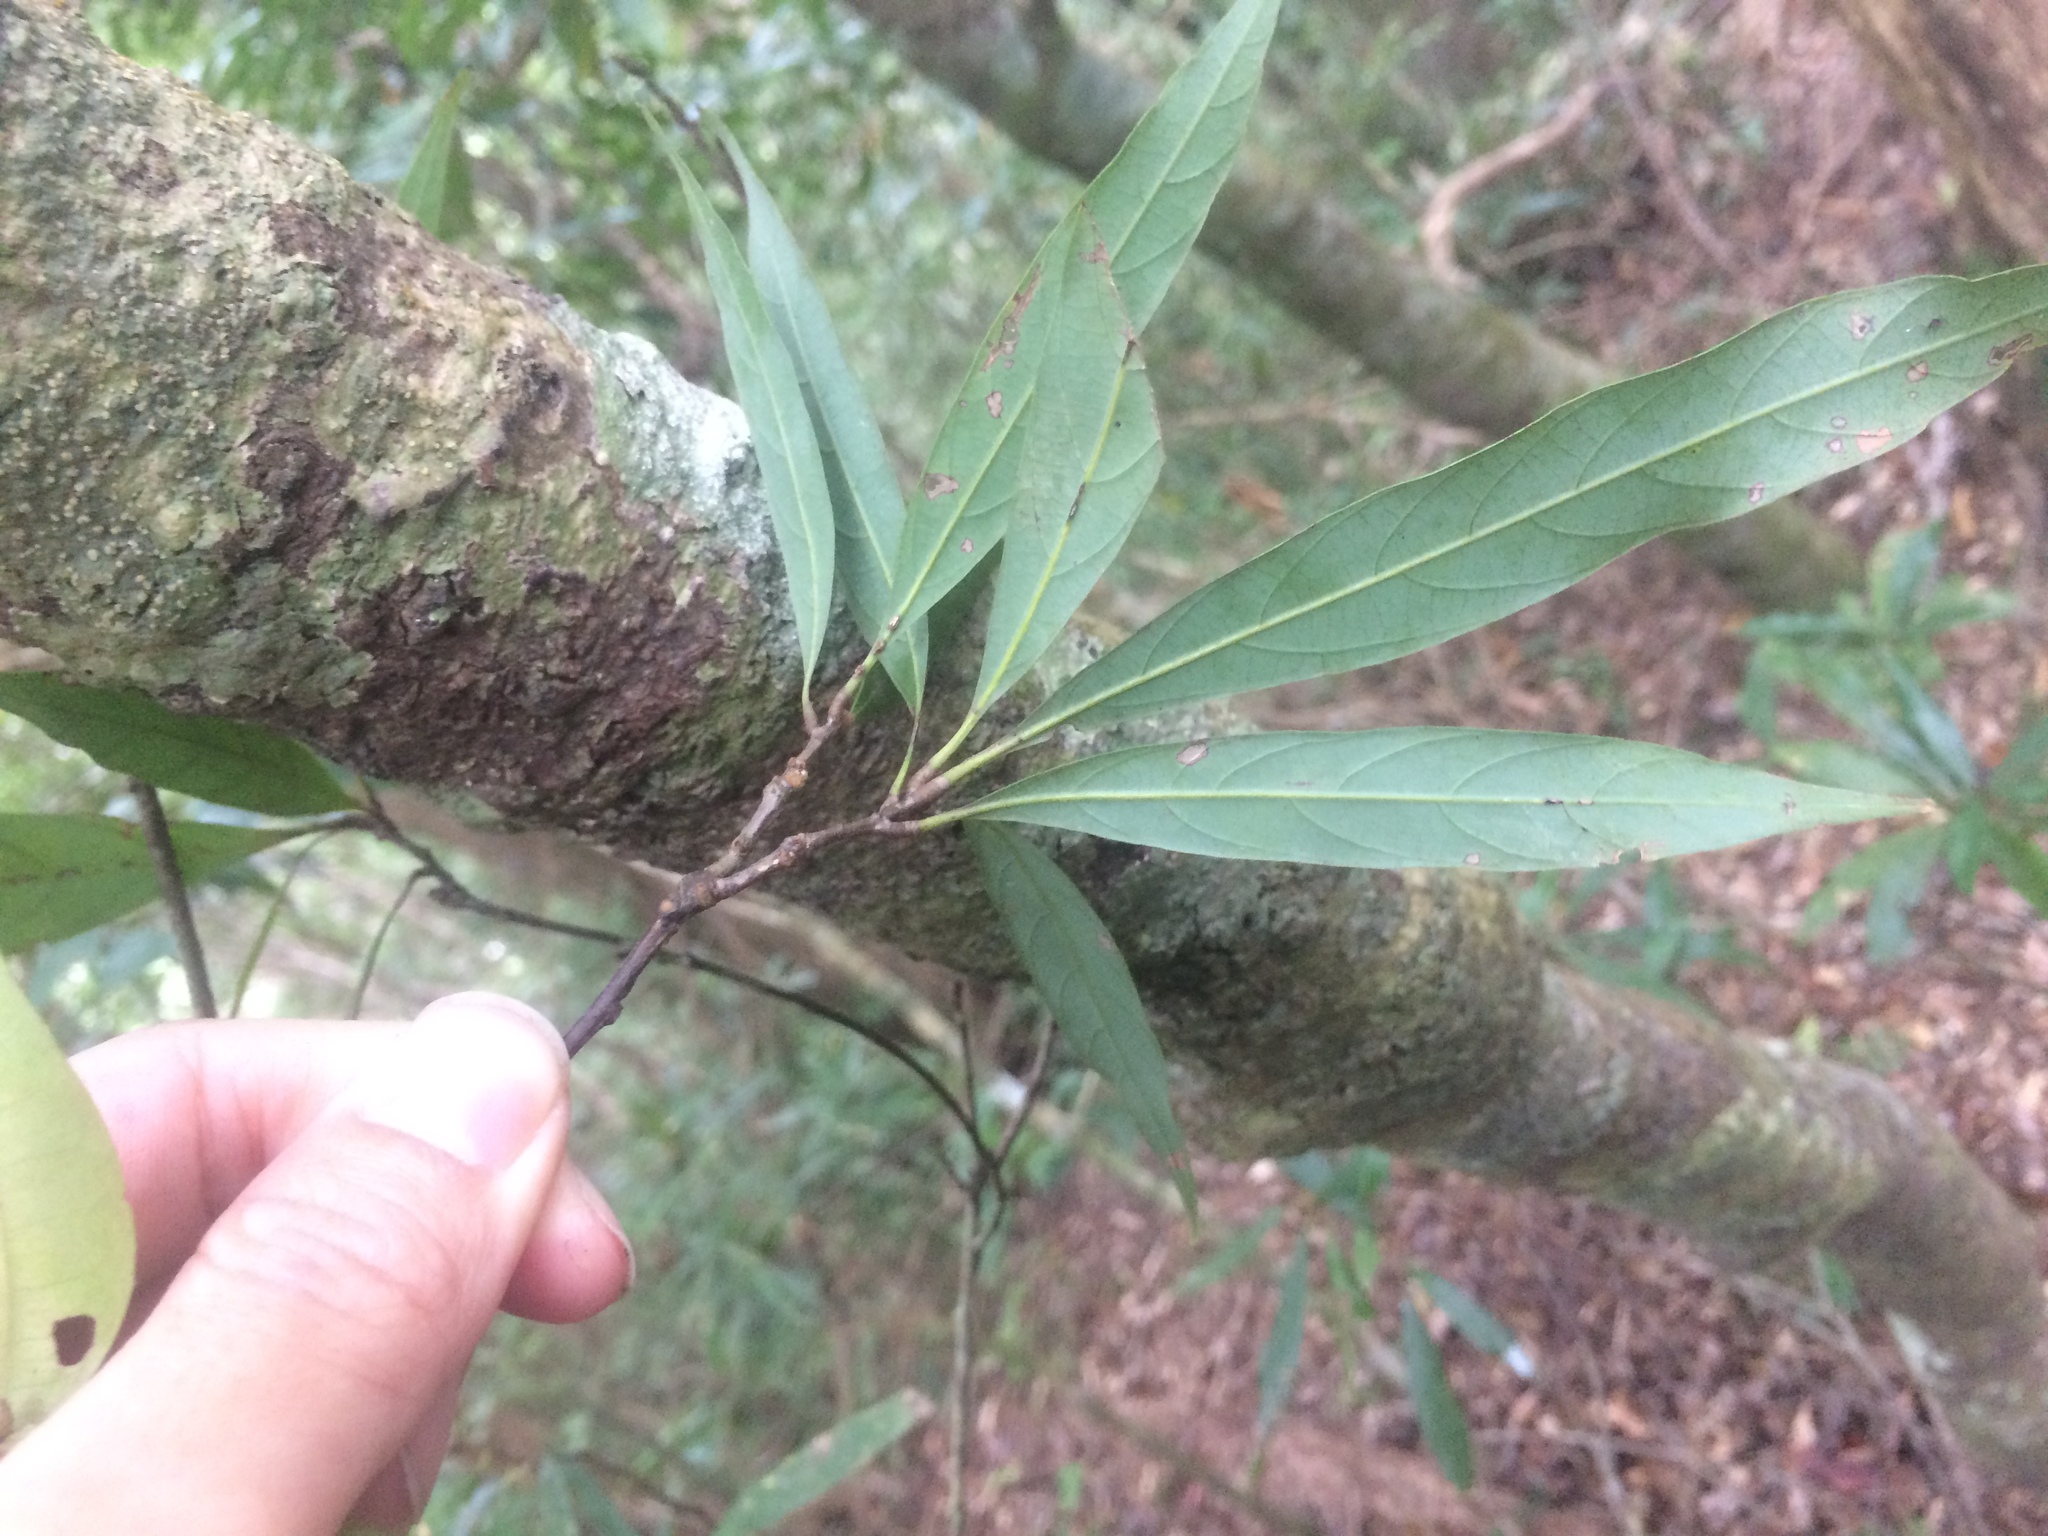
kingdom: Plantae
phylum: Tracheophyta
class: Magnoliopsida
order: Fagales
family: Fagaceae
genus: Quercus
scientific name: Quercus pachyloma
